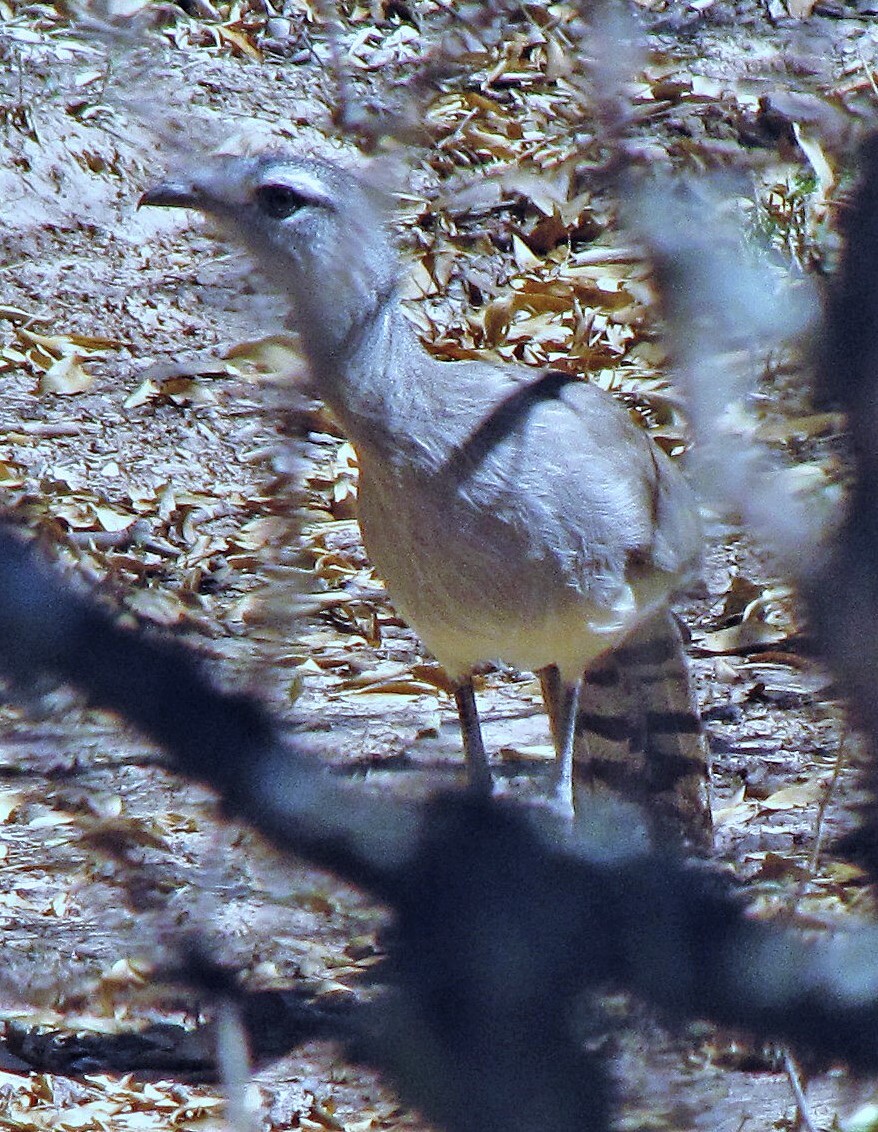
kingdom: Animalia
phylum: Chordata
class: Aves
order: Cariamiformes
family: Cariamidae
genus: Chunga
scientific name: Chunga burmeisteri
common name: Black-legged seriema
